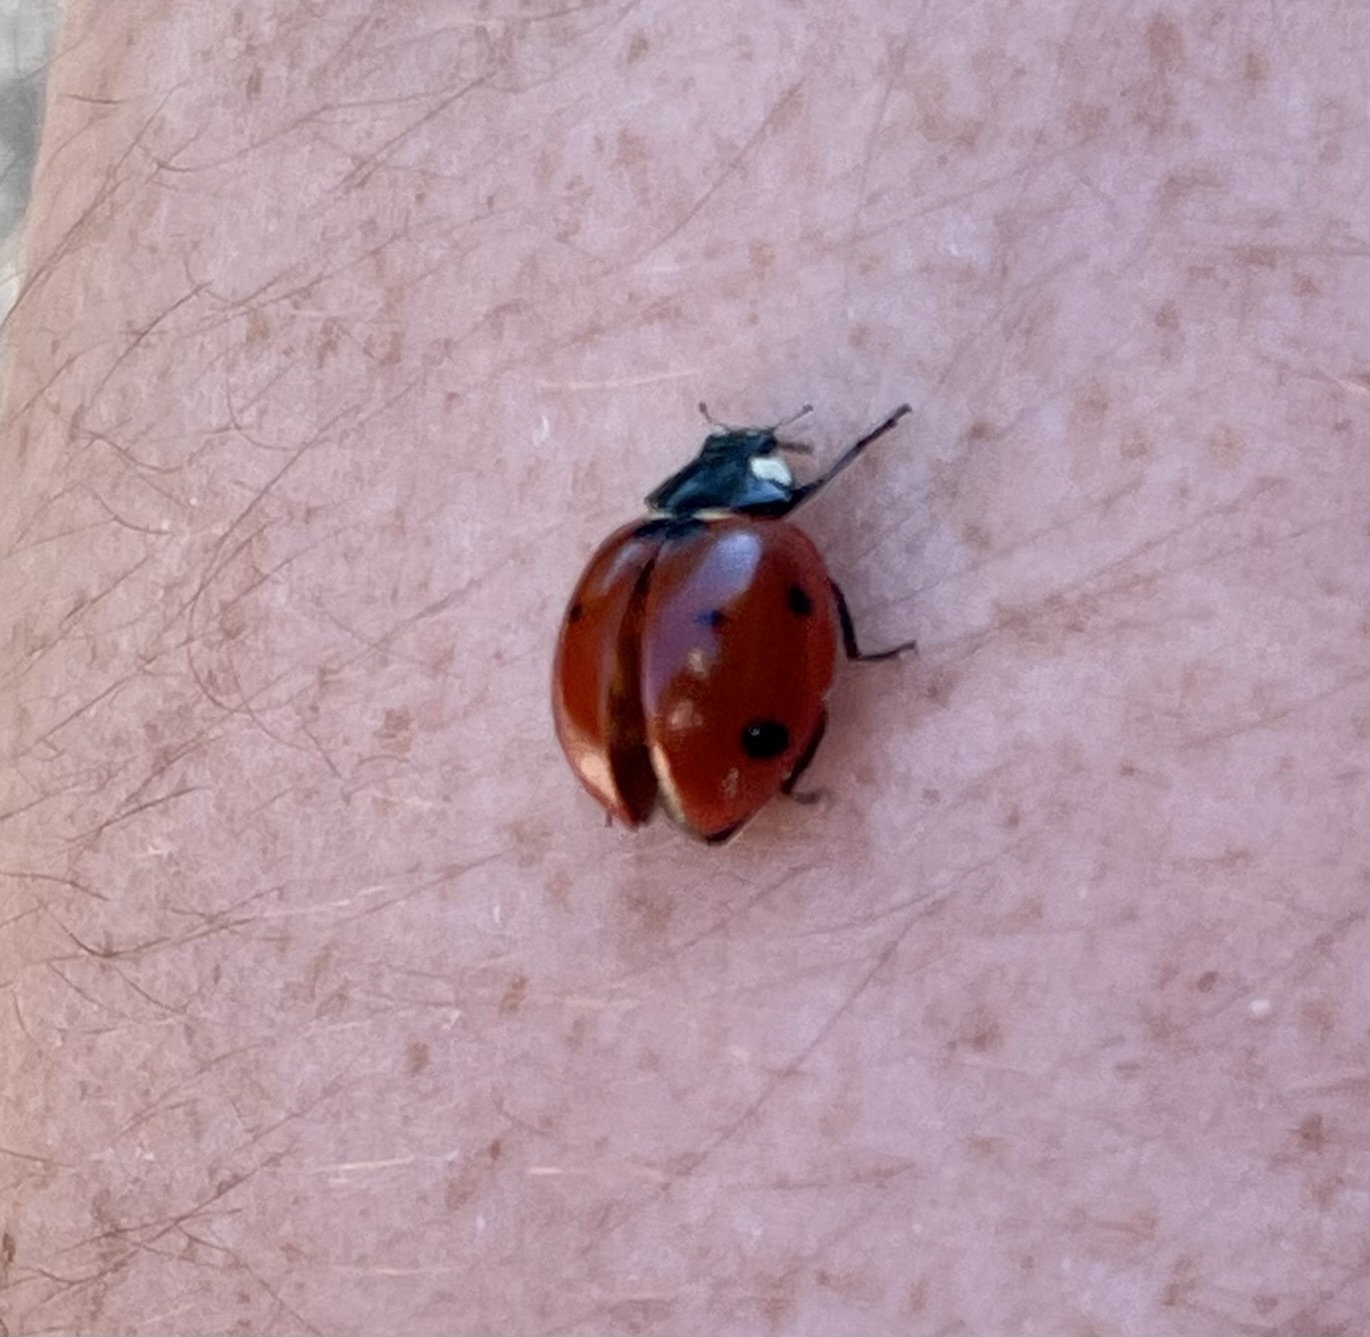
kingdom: Animalia
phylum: Arthropoda
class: Insecta
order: Coleoptera
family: Coccinellidae
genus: Coccinella
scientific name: Coccinella septempunctata
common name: Sevenspotted lady beetle
